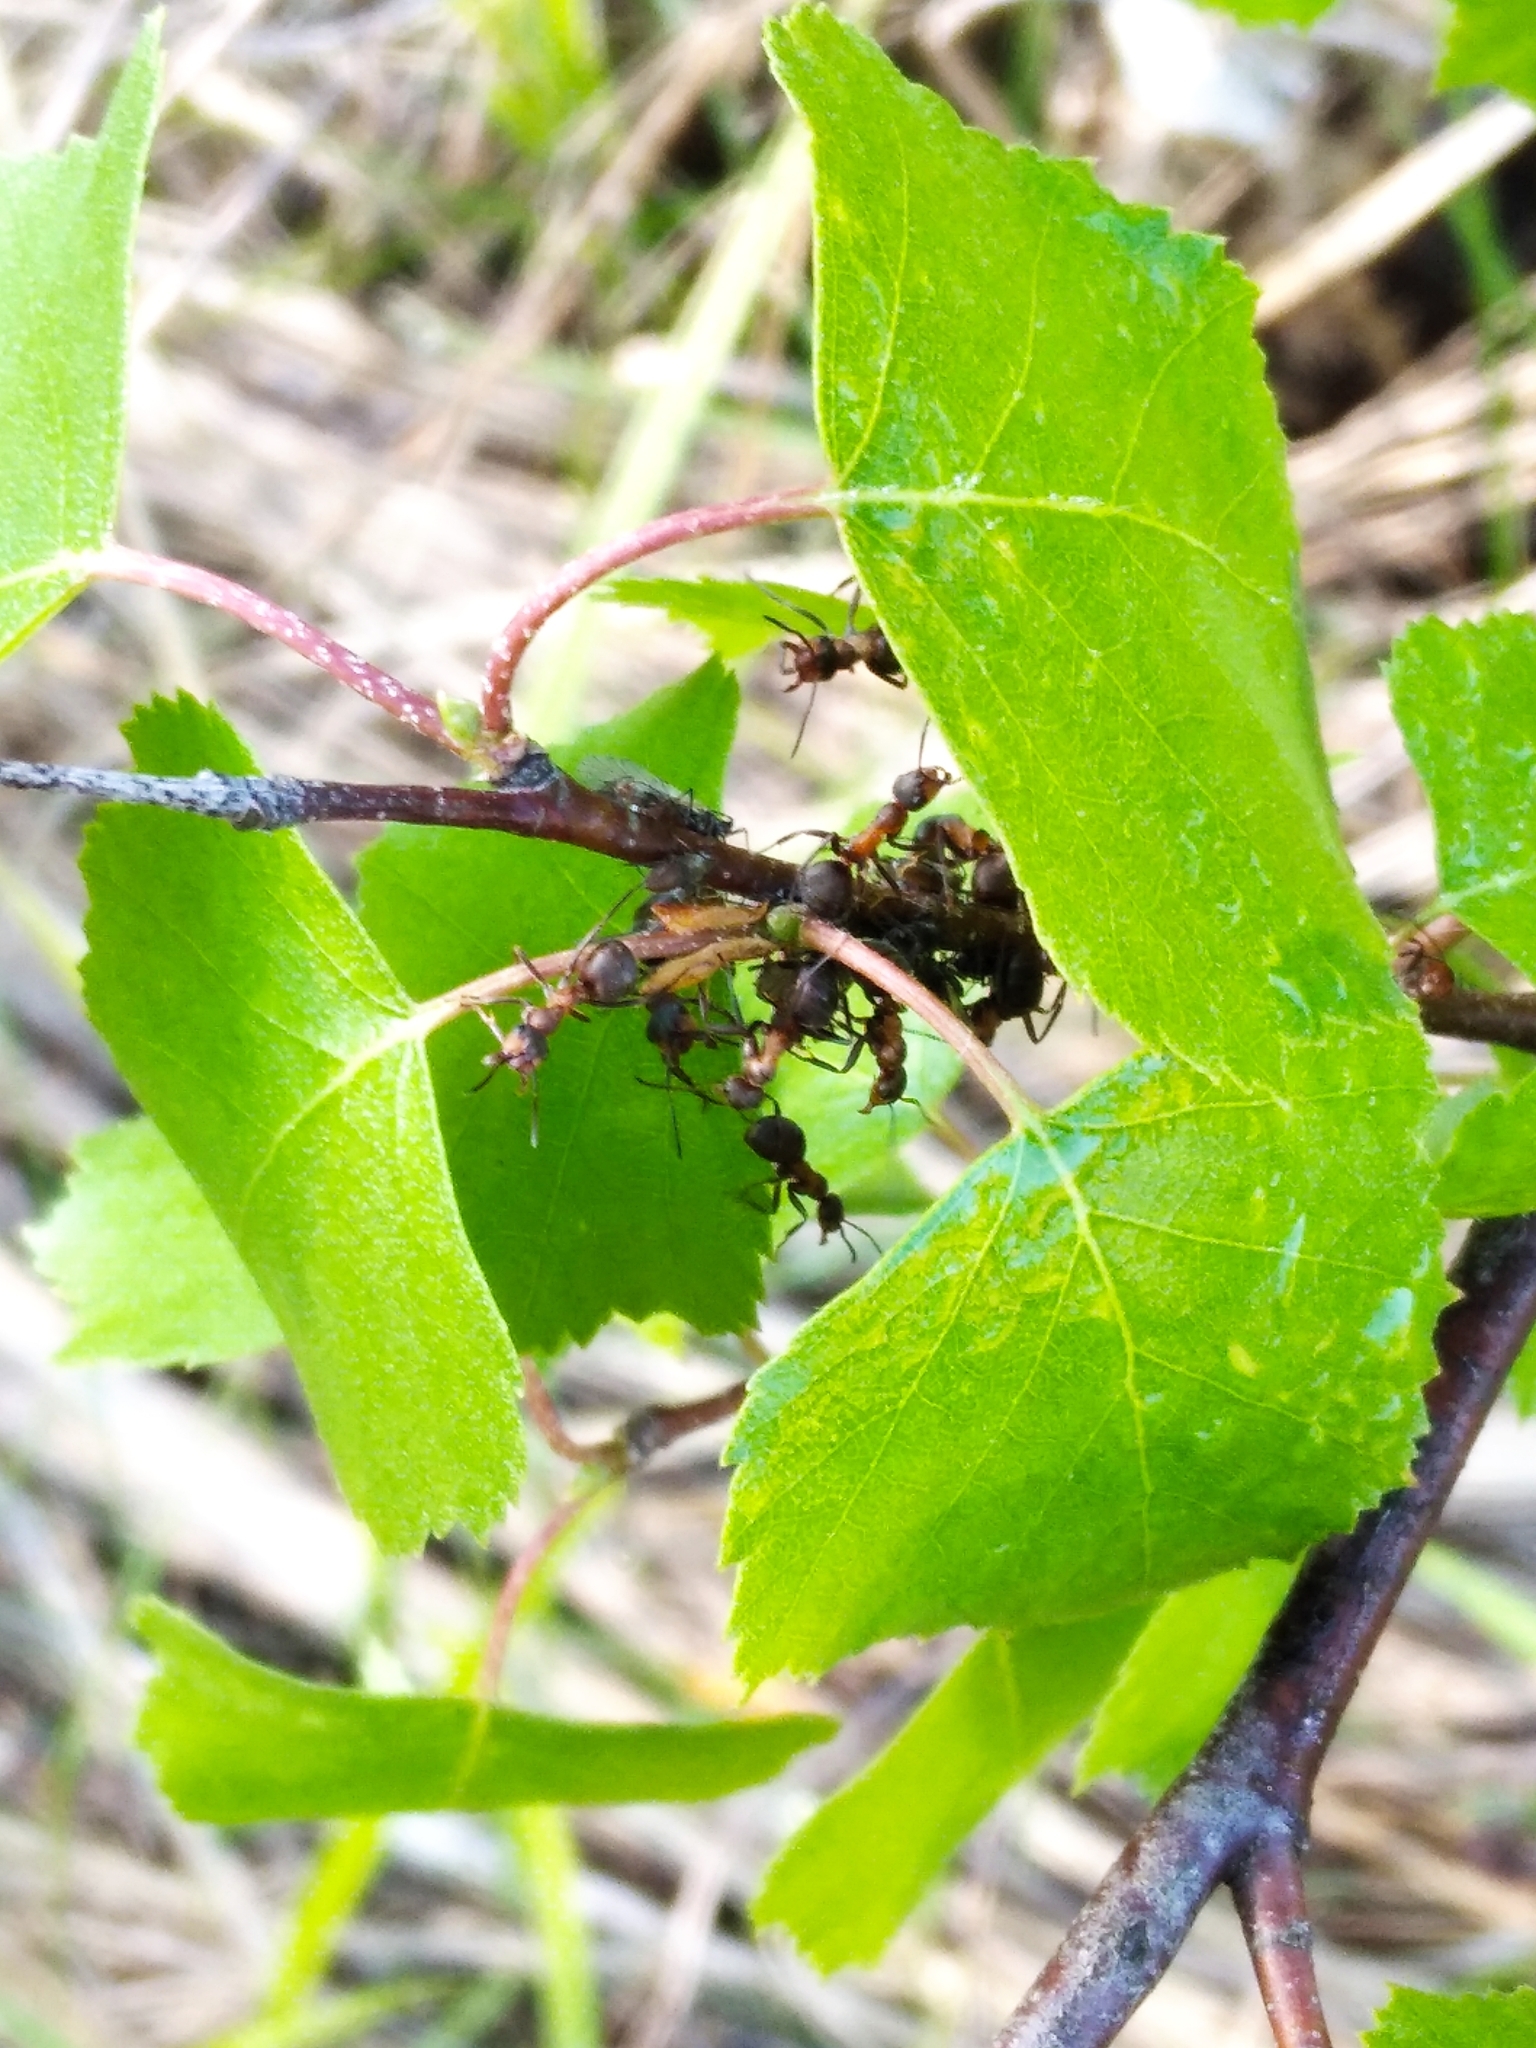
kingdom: Animalia
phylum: Arthropoda
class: Insecta
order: Hymenoptera
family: Formicidae
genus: Formica
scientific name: Formica
